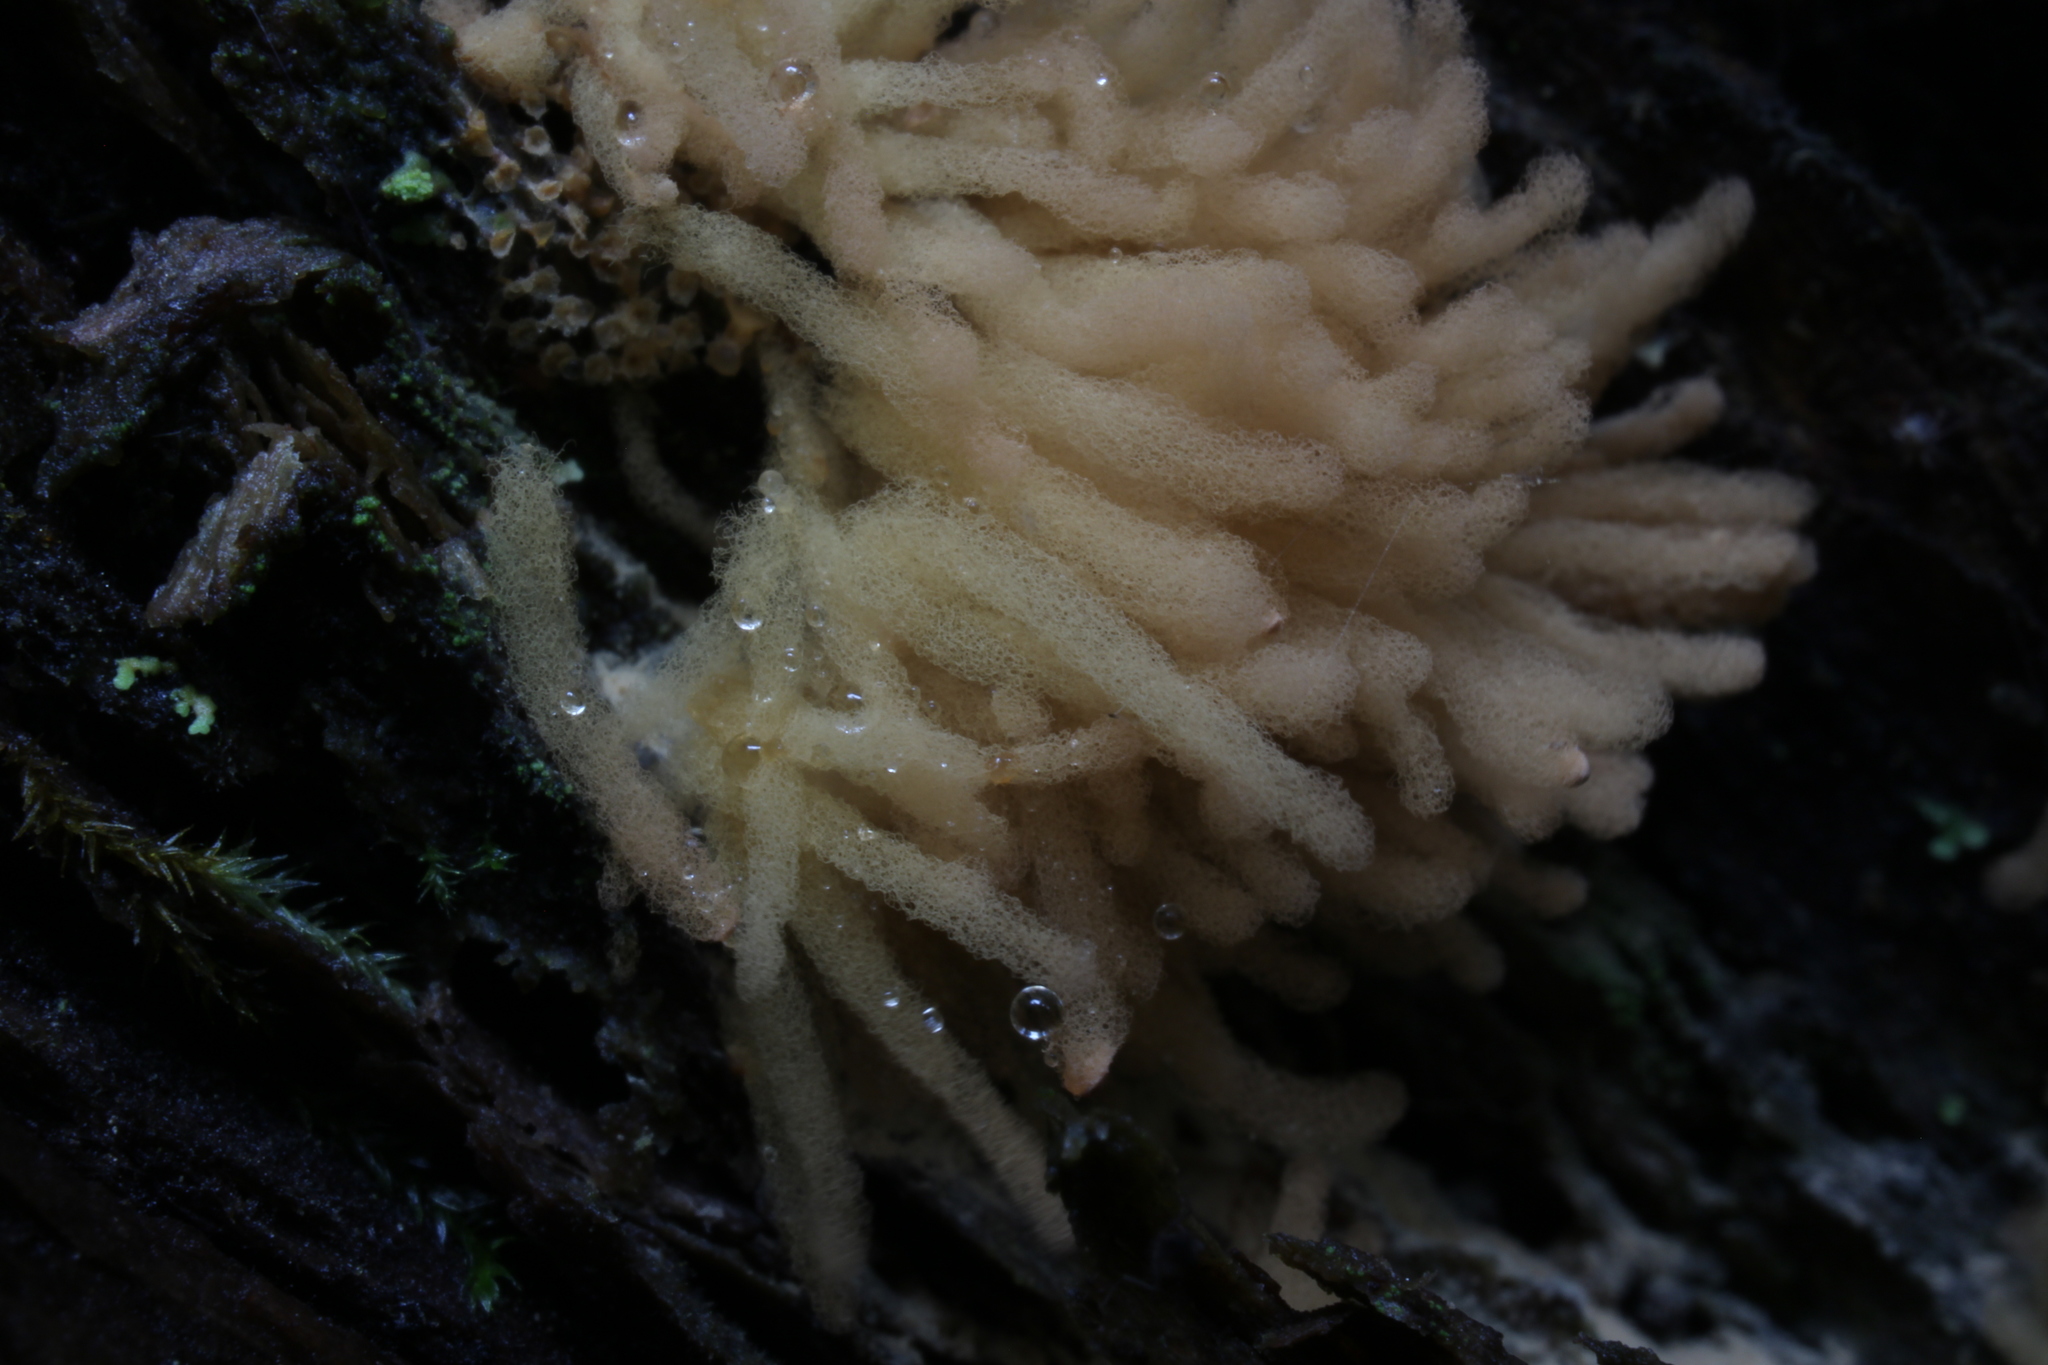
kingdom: Protozoa
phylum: Mycetozoa
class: Myxomycetes
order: Trichiales
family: Arcyriaceae
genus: Arcyria
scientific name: Arcyria obvelata
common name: Yellow carnival candy slime
